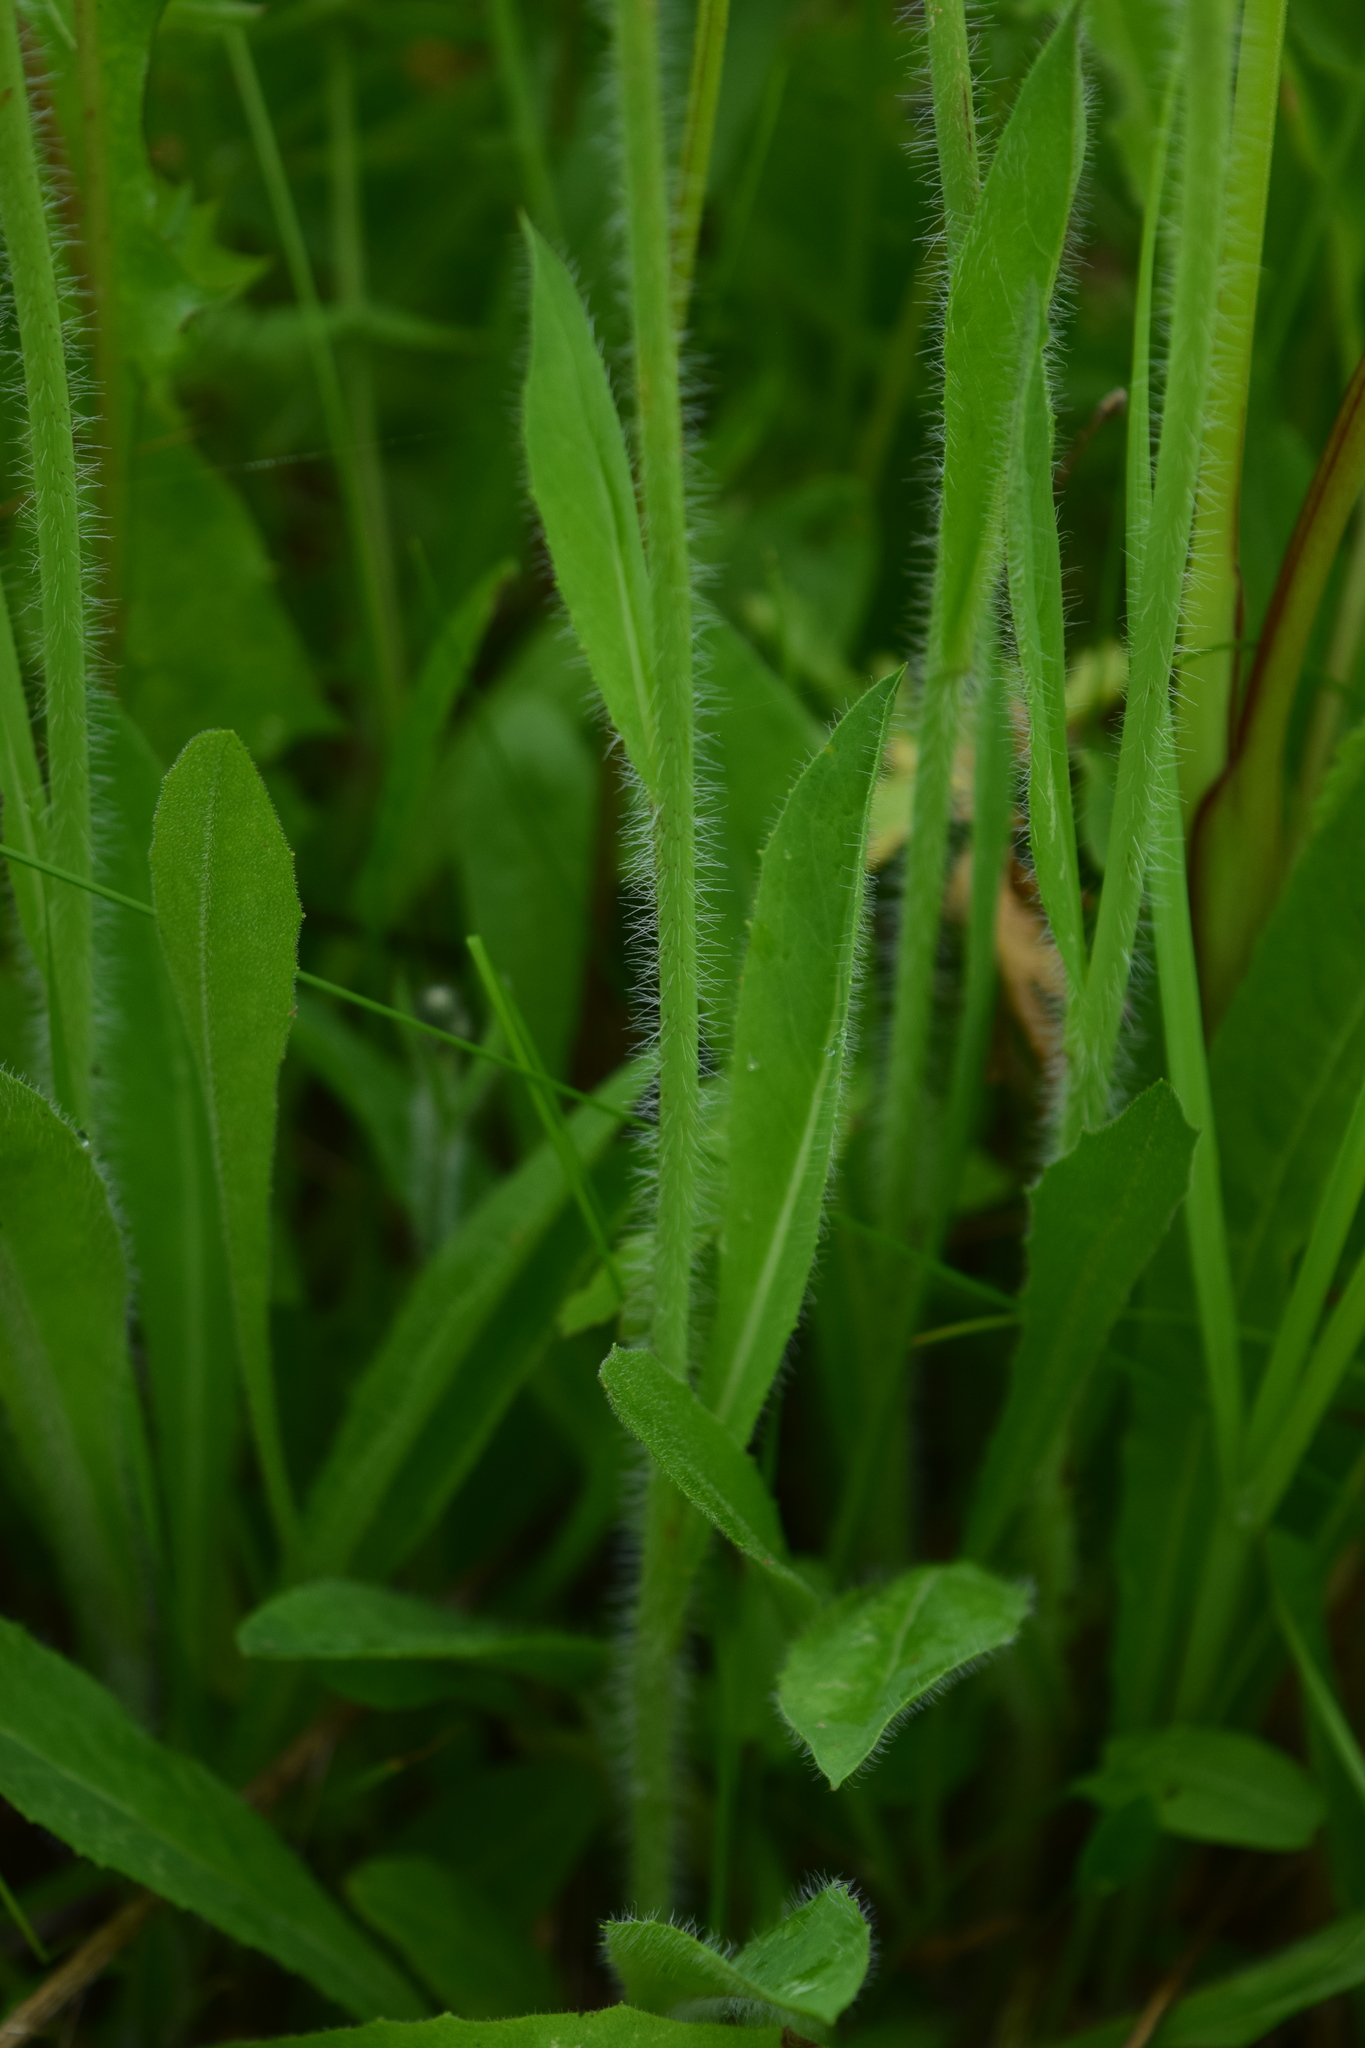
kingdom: Plantae
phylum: Tracheophyta
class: Magnoliopsida
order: Asterales
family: Asteraceae
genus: Pilosella
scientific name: Pilosella
